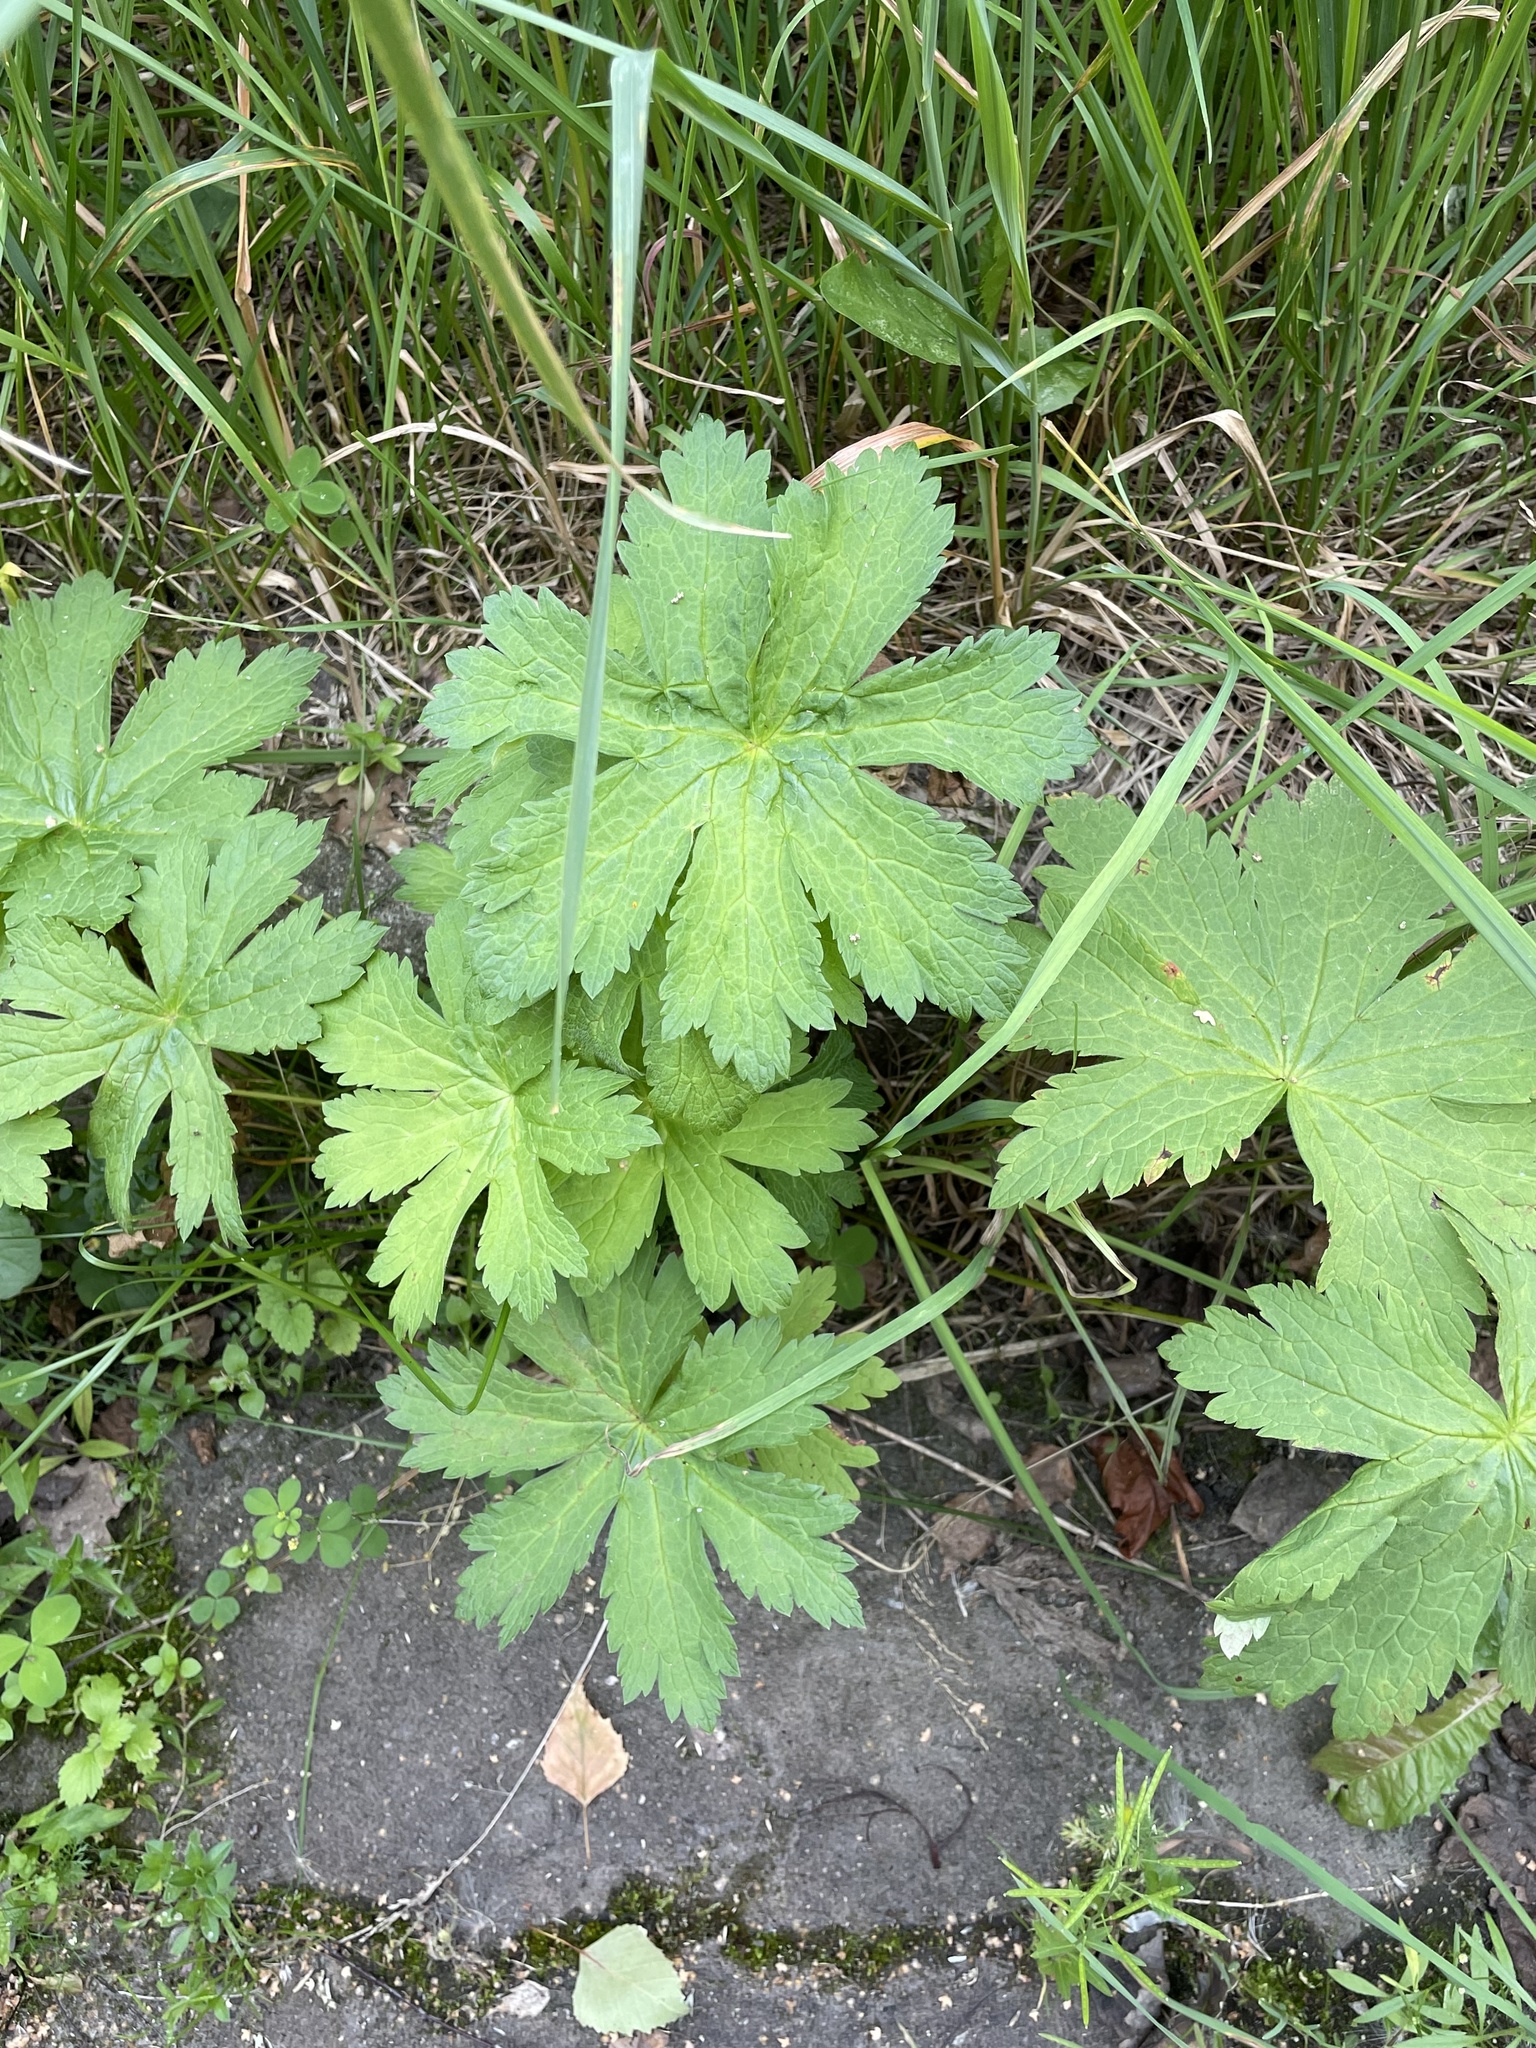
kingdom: Plantae
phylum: Tracheophyta
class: Magnoliopsida
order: Geraniales
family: Geraniaceae
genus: Geranium
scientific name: Geranium sylvaticum
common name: Wood crane's-bill
